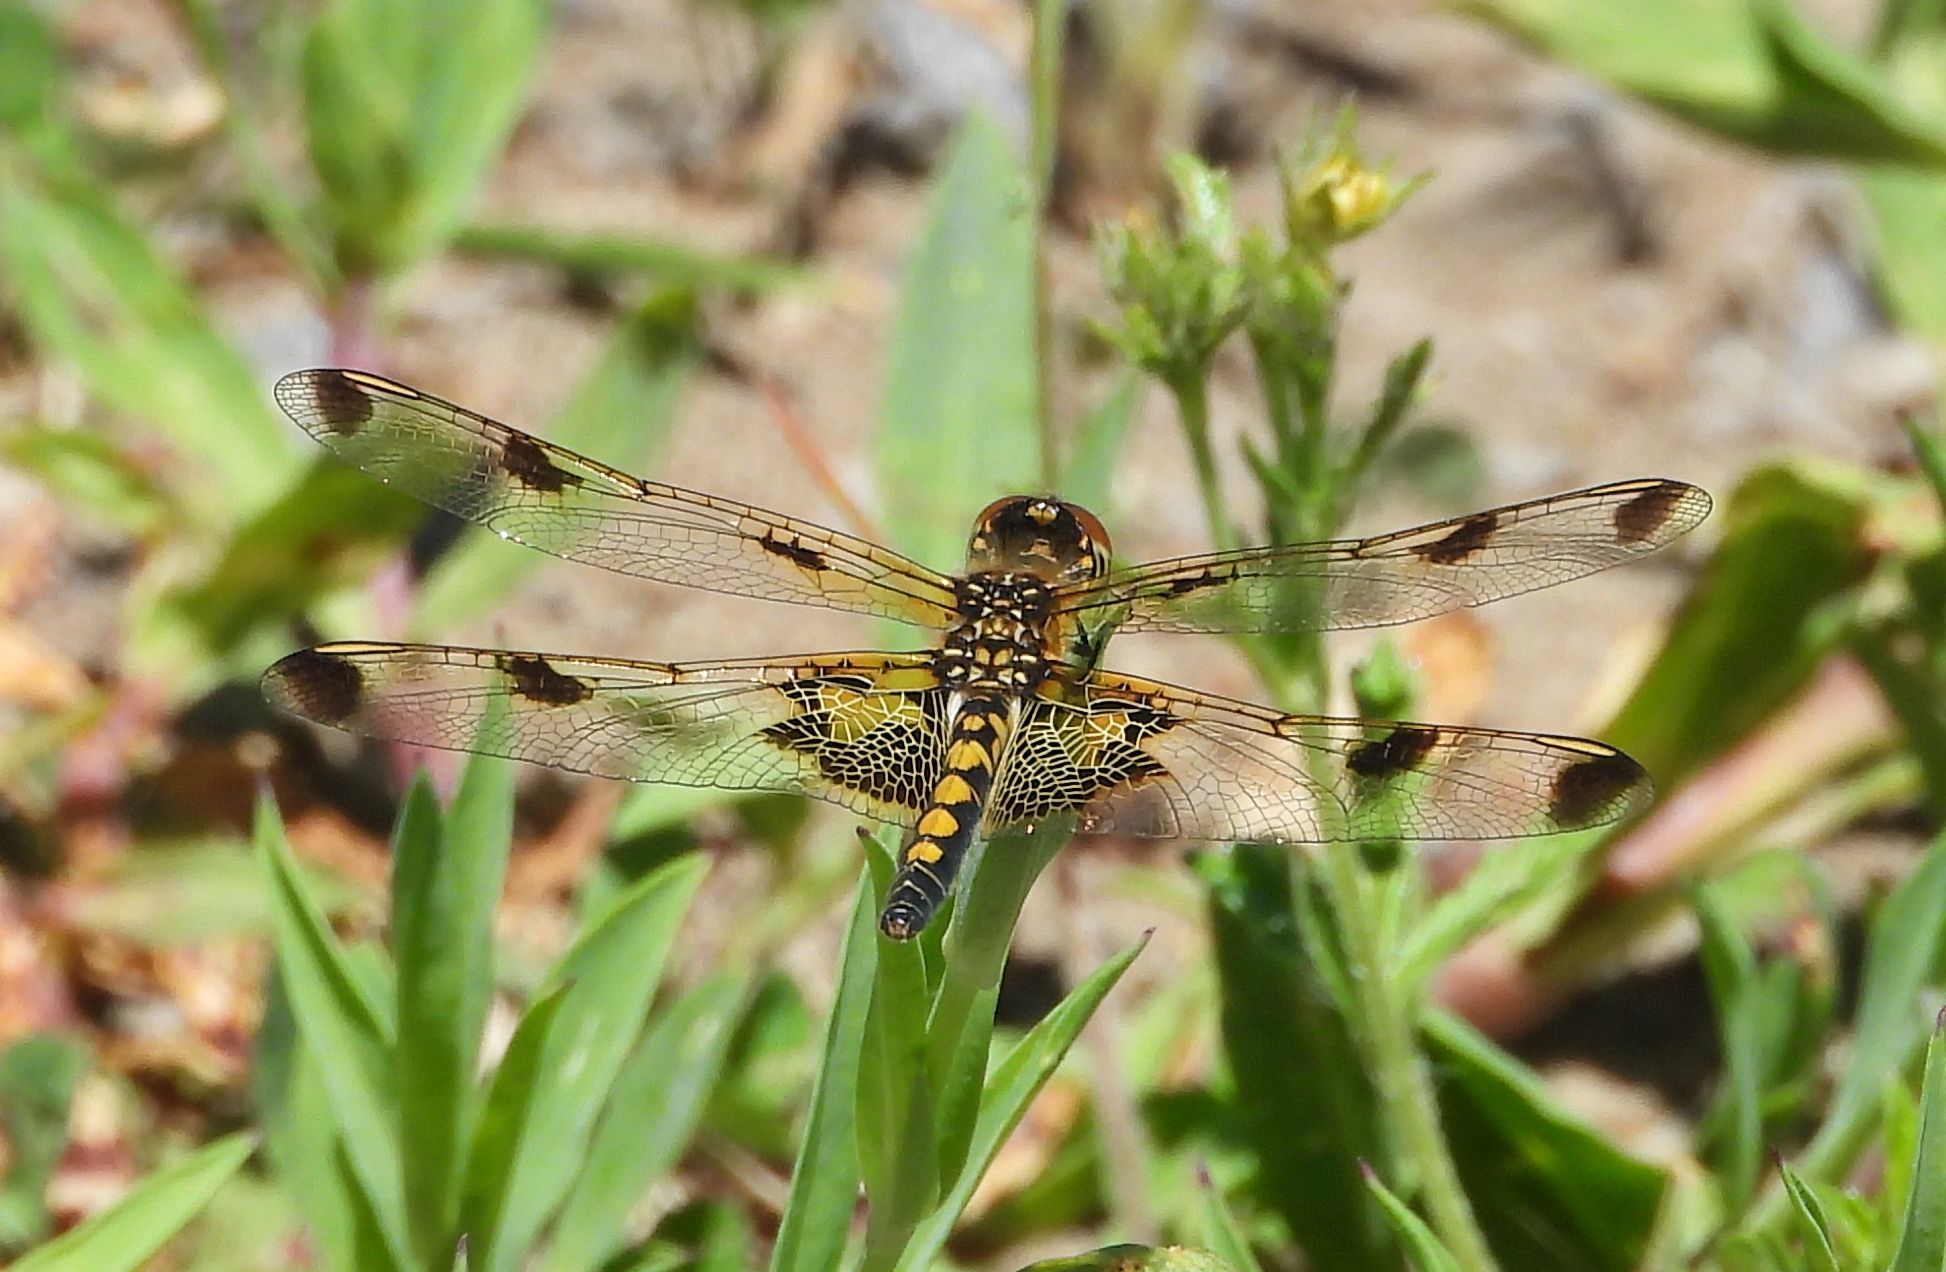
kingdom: Animalia
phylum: Arthropoda
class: Insecta
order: Odonata
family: Libellulidae
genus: Celithemis
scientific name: Celithemis elisa
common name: Calico pennant
